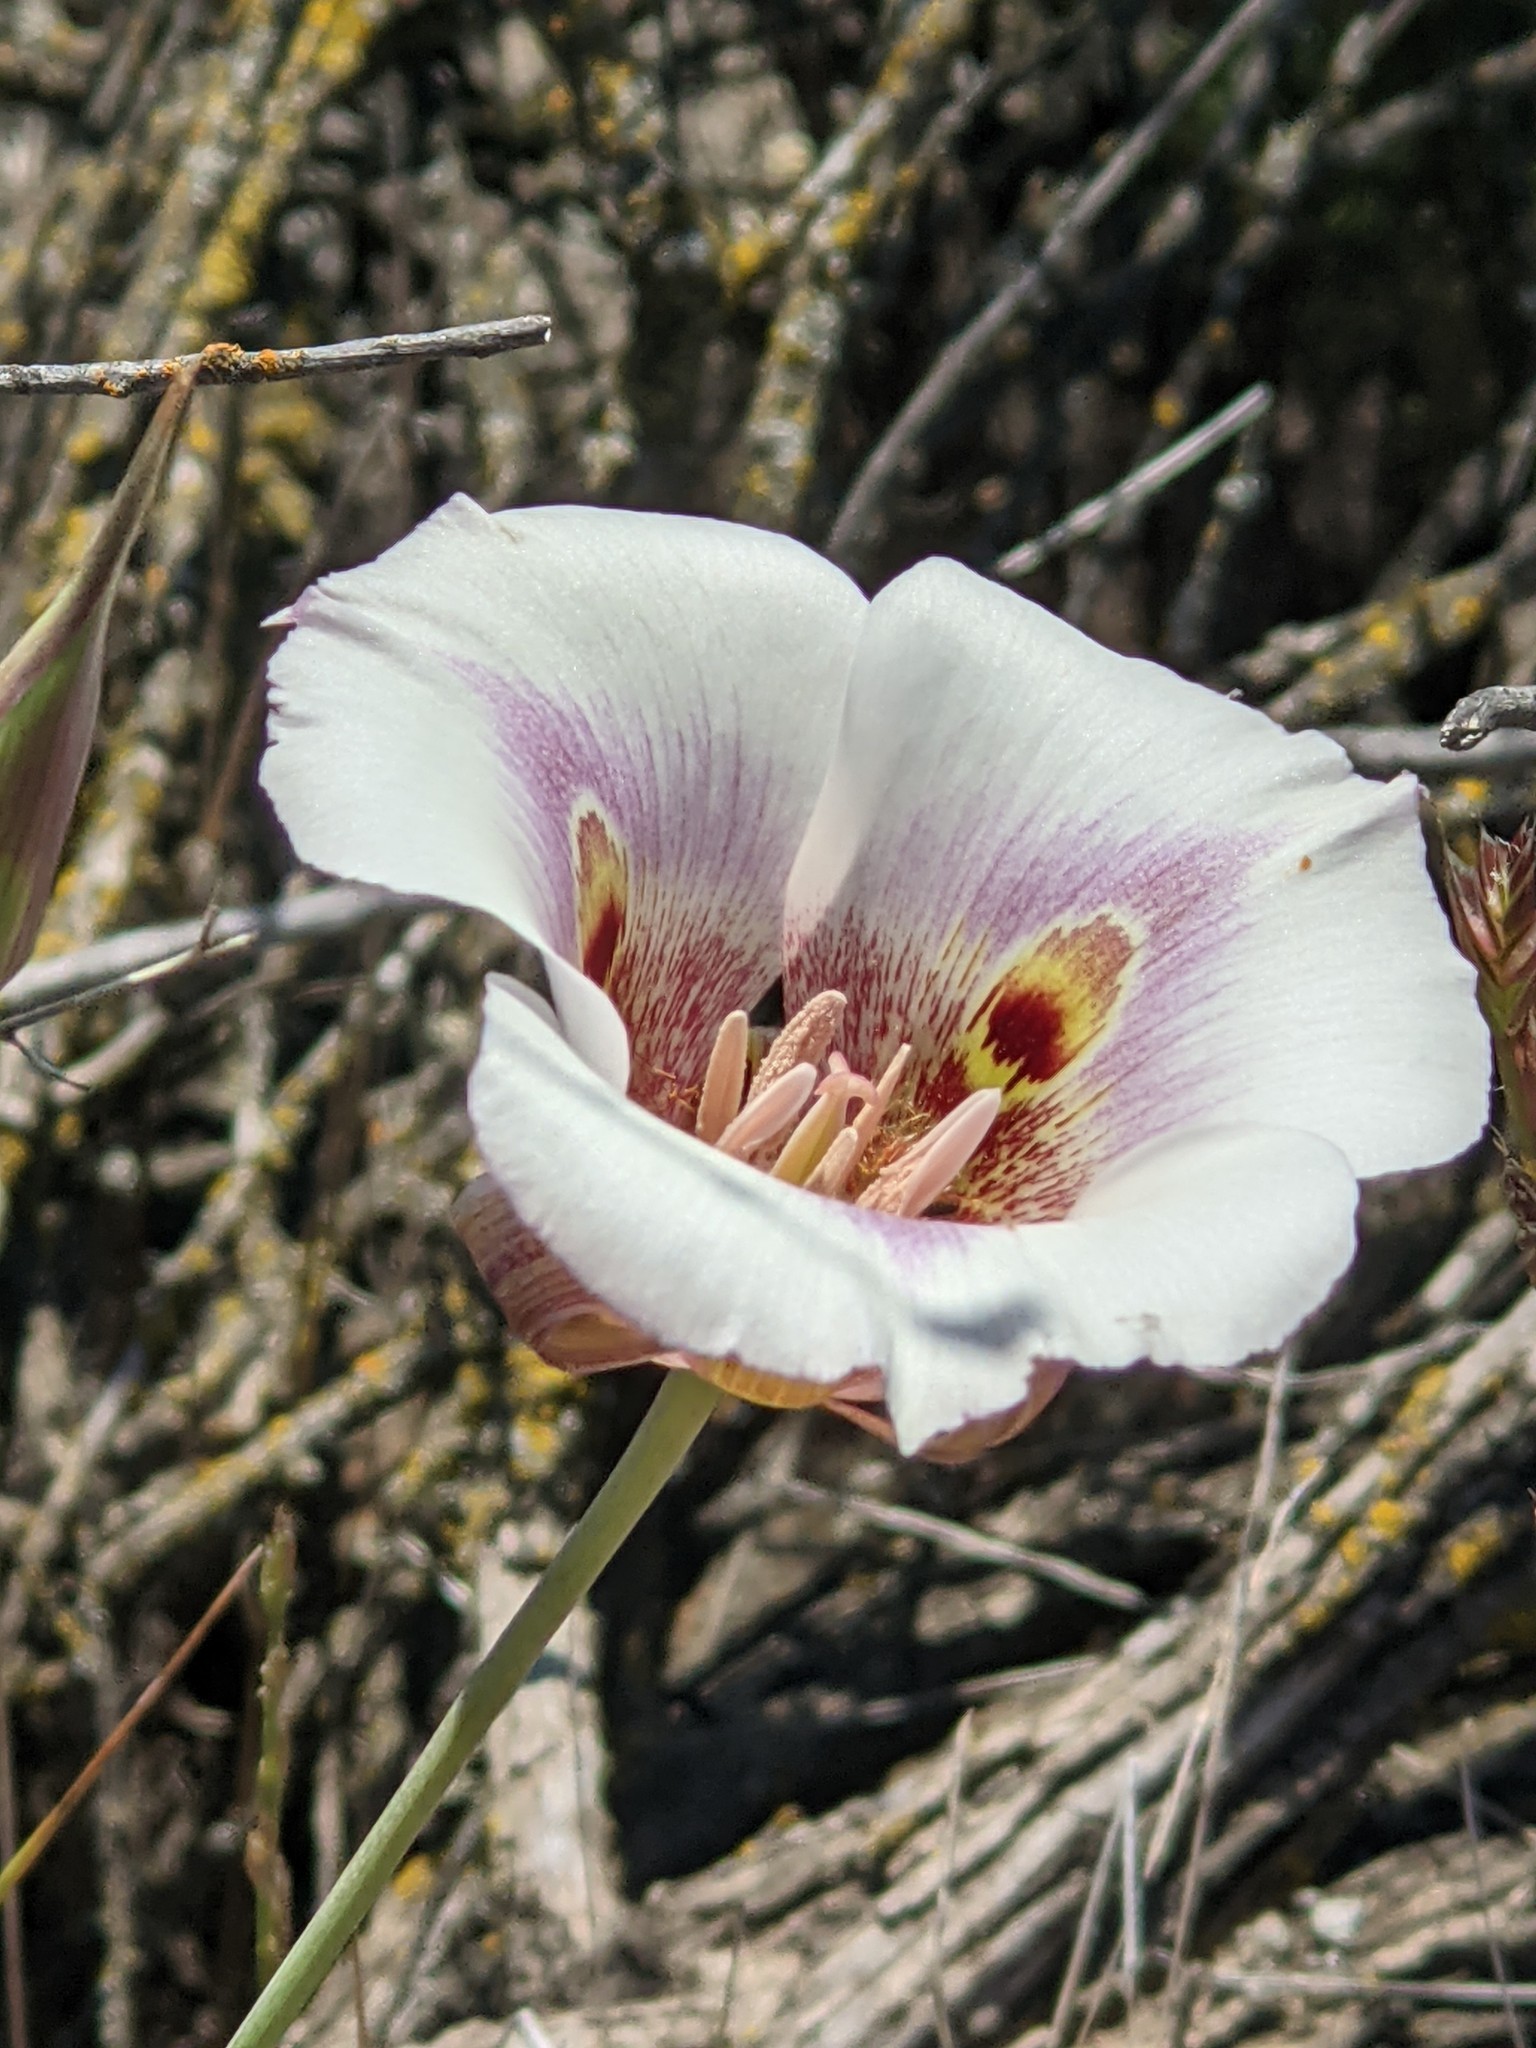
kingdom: Plantae
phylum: Tracheophyta
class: Liliopsida
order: Liliales
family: Liliaceae
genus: Calochortus
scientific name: Calochortus argillosus
